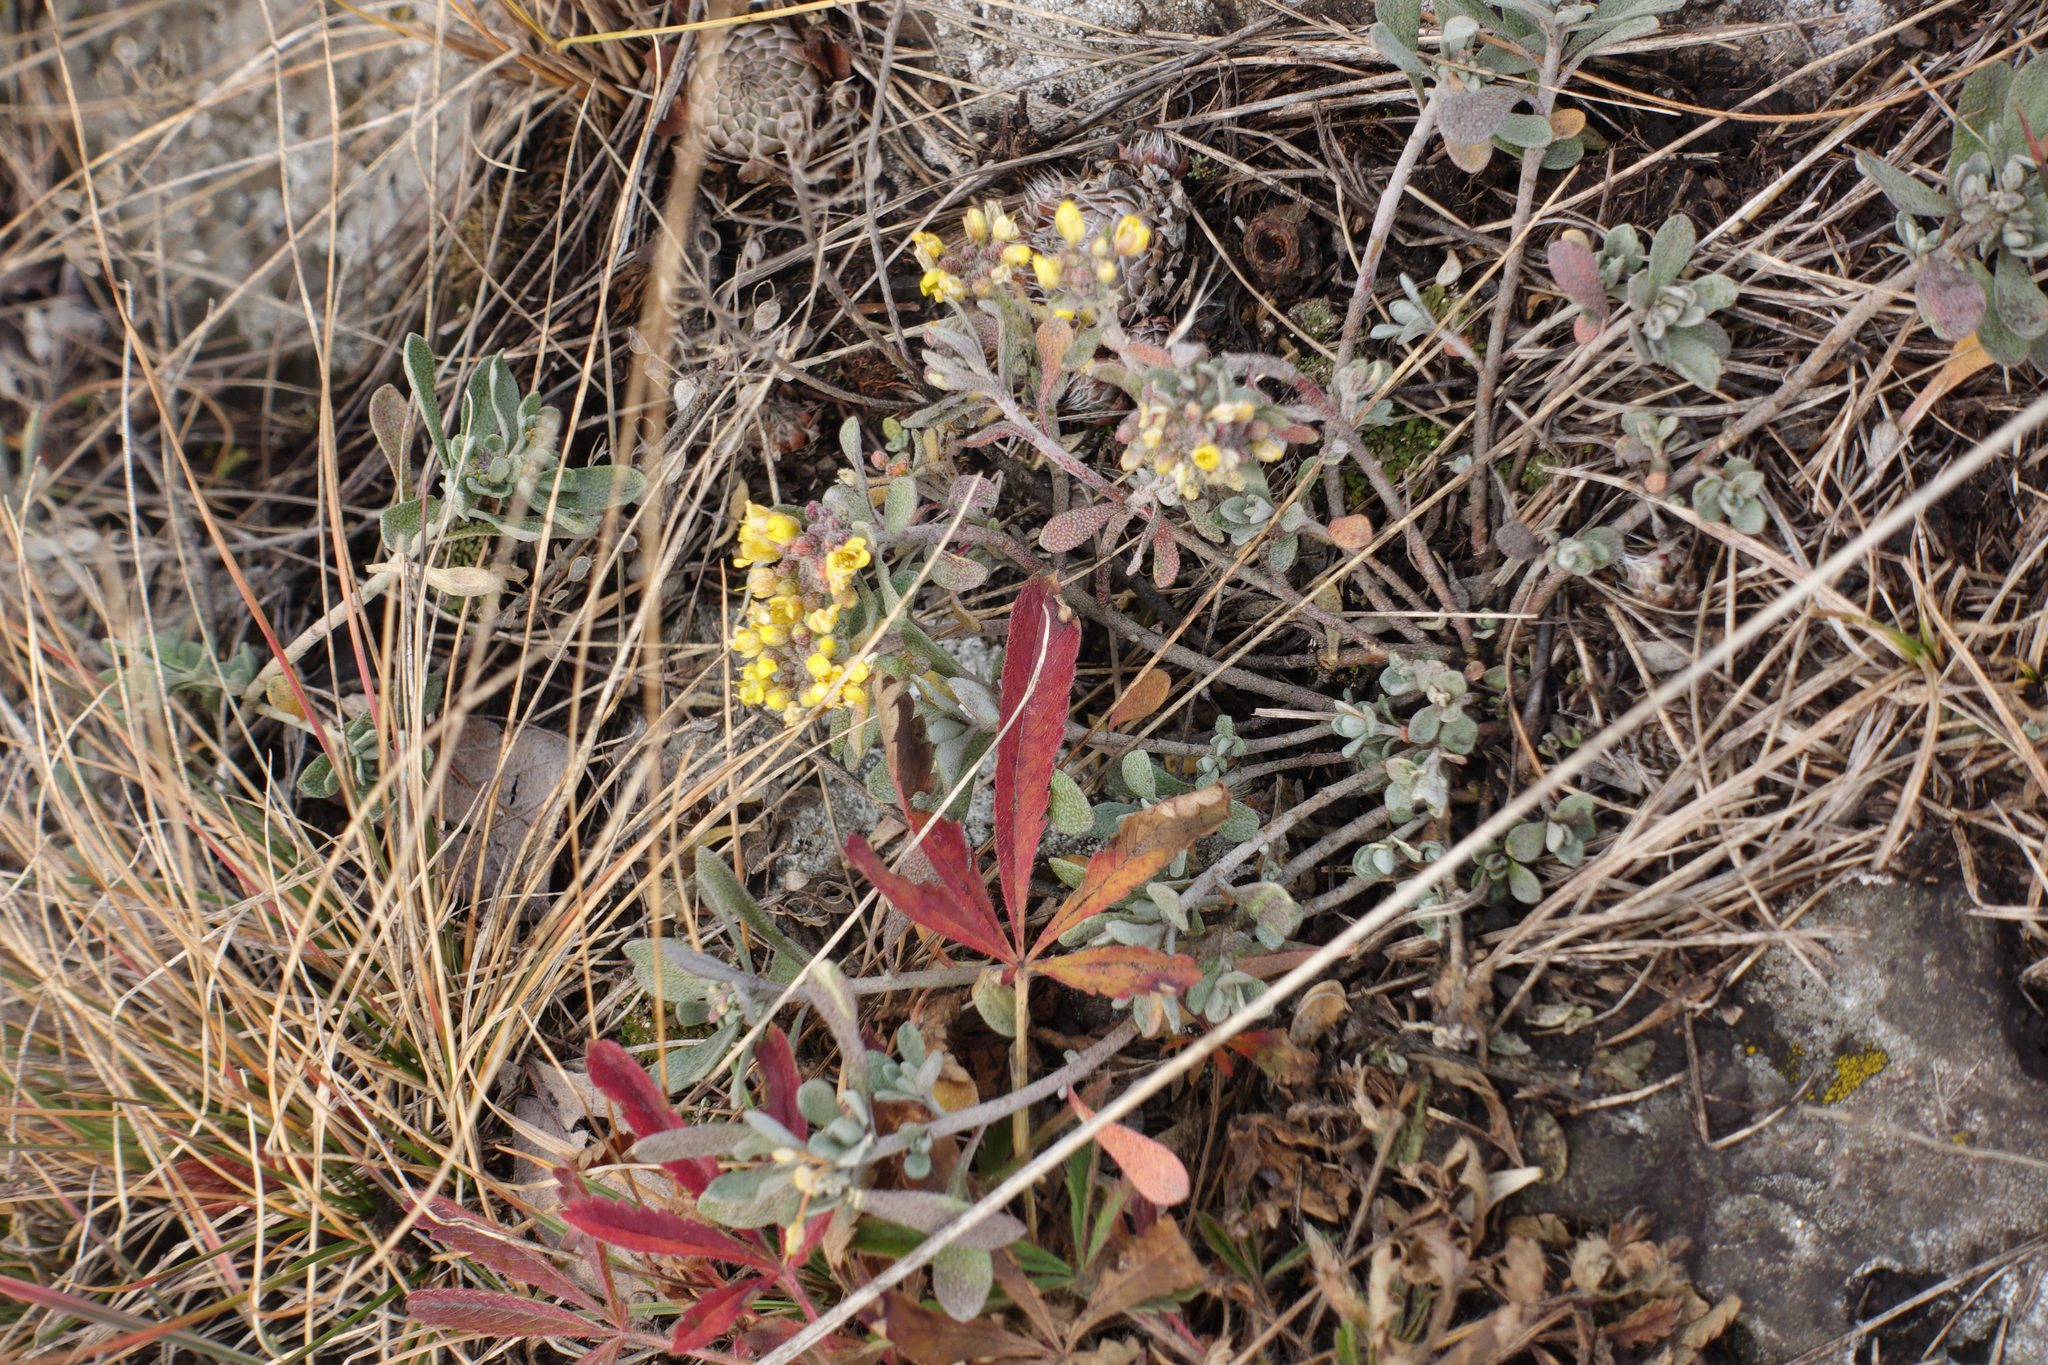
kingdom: Plantae
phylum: Tracheophyta
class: Magnoliopsida
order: Brassicales
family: Brassicaceae
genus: Odontarrhena
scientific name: Odontarrhena obovata
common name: American alyssum
